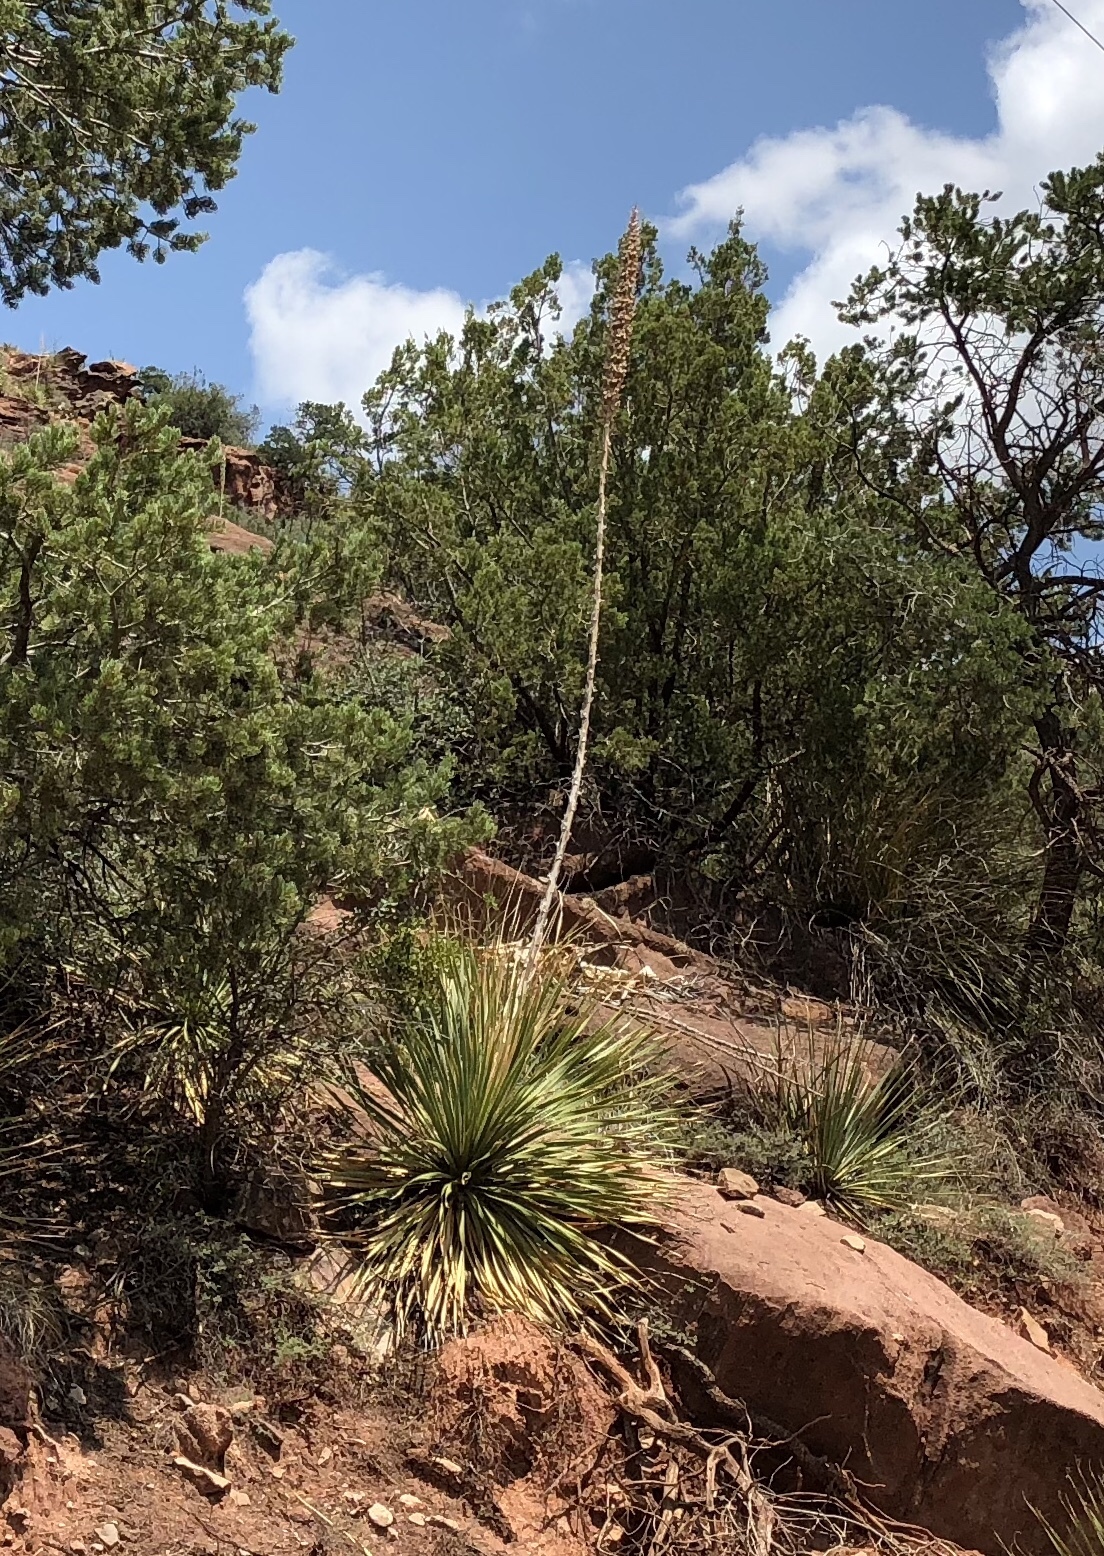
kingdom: Plantae
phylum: Tracheophyta
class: Liliopsida
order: Asparagales
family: Asparagaceae
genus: Dasylirion
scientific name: Dasylirion wheeleri
